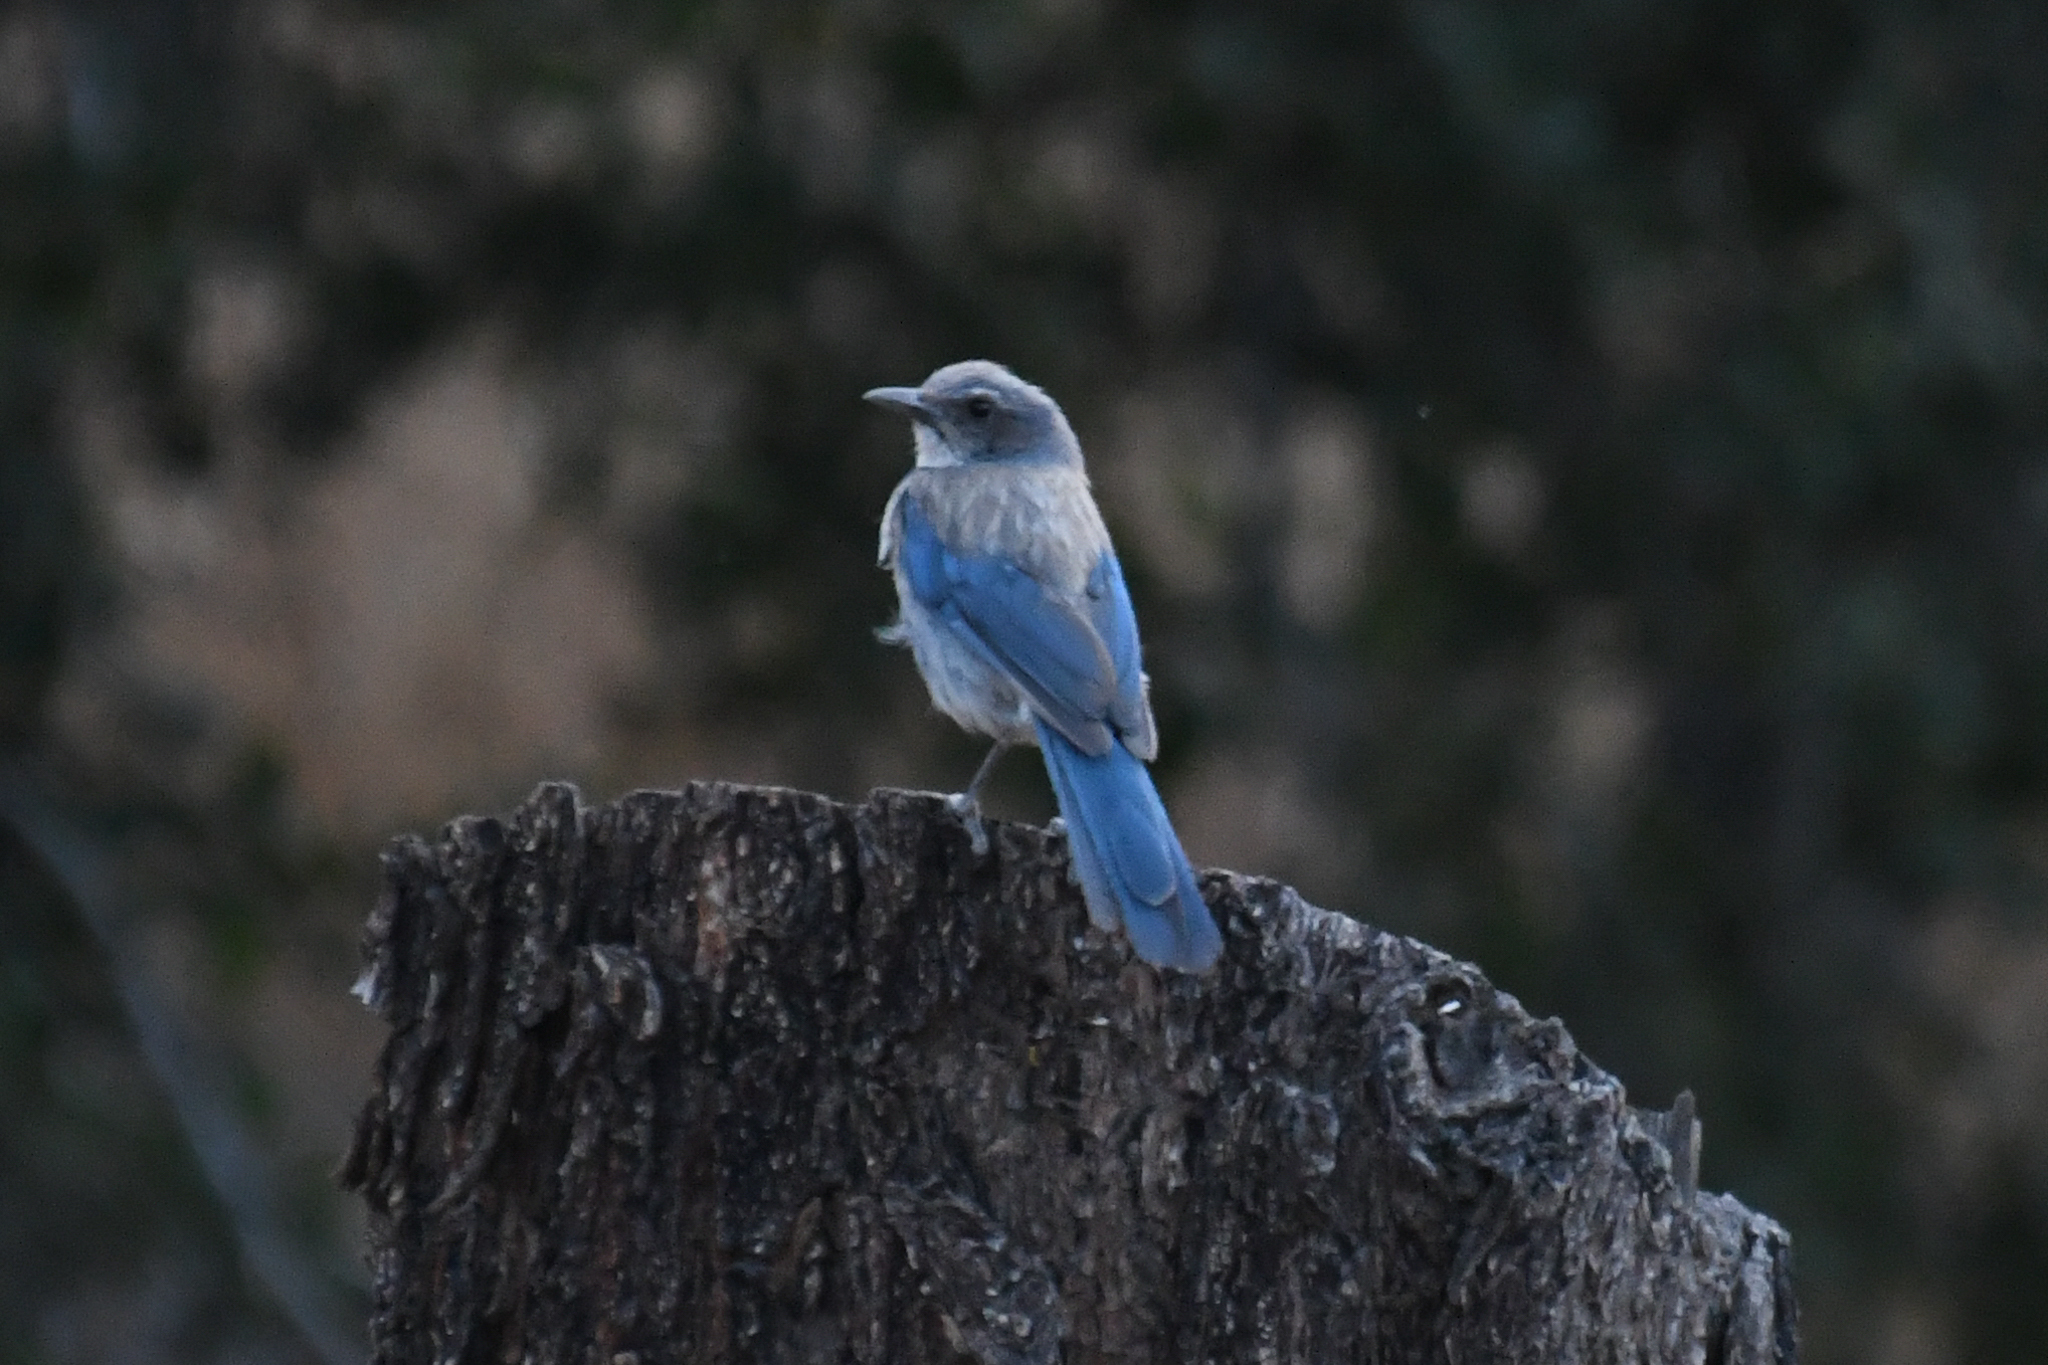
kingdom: Animalia
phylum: Chordata
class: Aves
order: Passeriformes
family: Corvidae
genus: Aphelocoma
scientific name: Aphelocoma californica
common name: California scrub-jay
